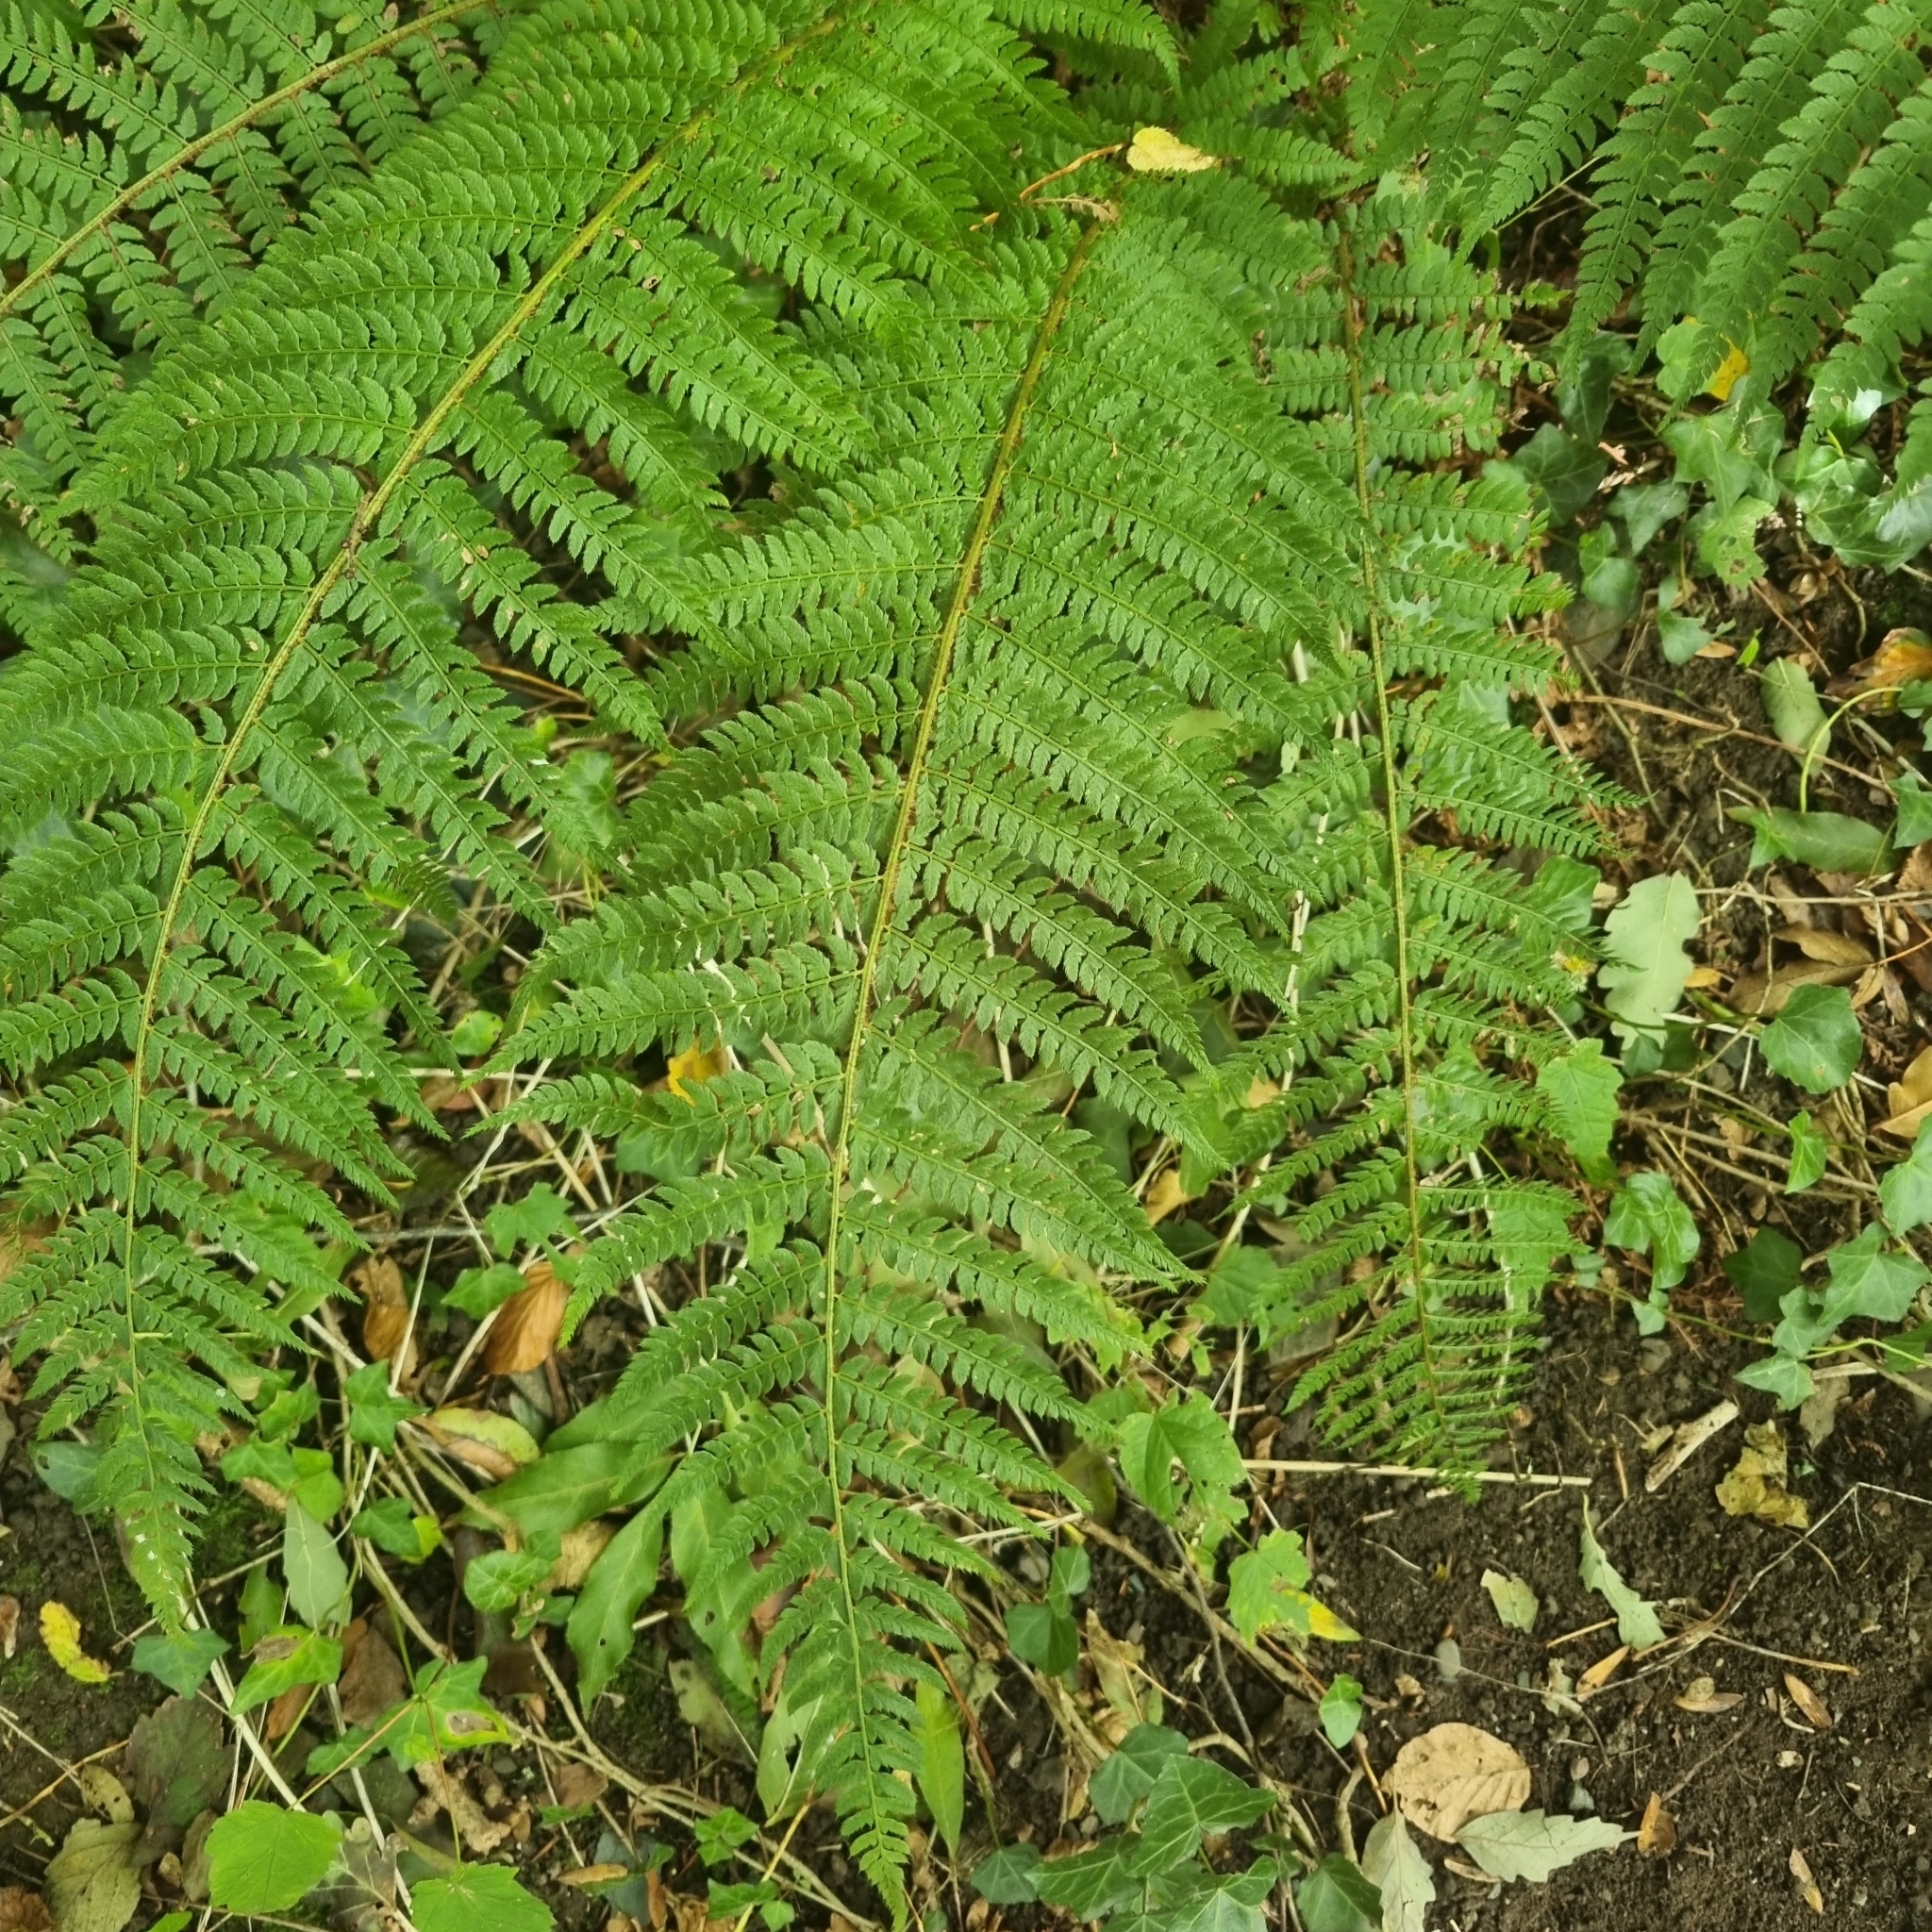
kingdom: Plantae
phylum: Tracheophyta
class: Polypodiopsida
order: Polypodiales
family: Dryopteridaceae
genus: Polystichum
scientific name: Polystichum setiferum
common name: Soft shield-fern
